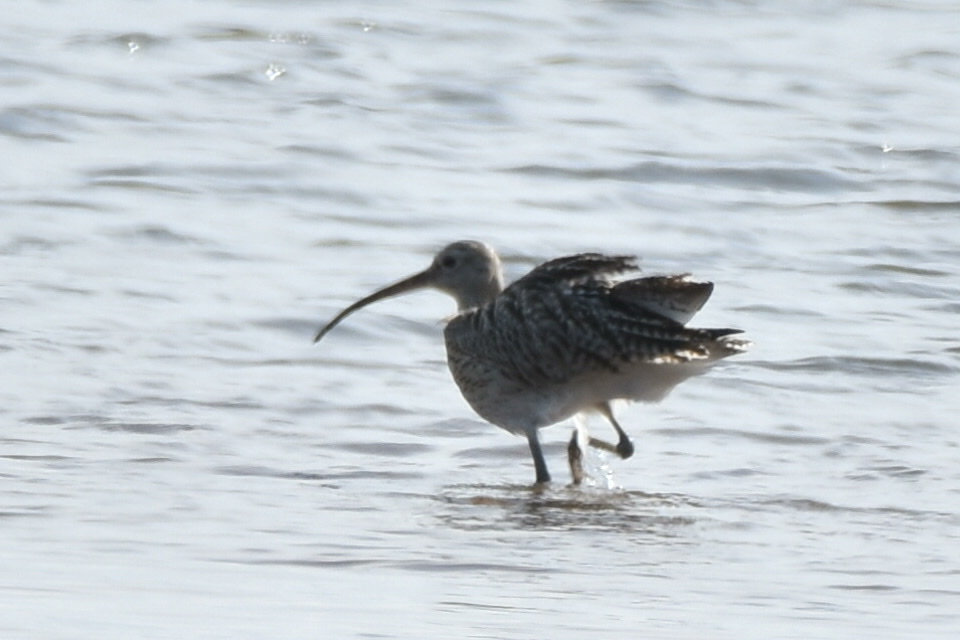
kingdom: Animalia
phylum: Chordata
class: Aves
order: Charadriiformes
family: Scolopacidae
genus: Numenius
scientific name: Numenius arquata
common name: Eurasian curlew
